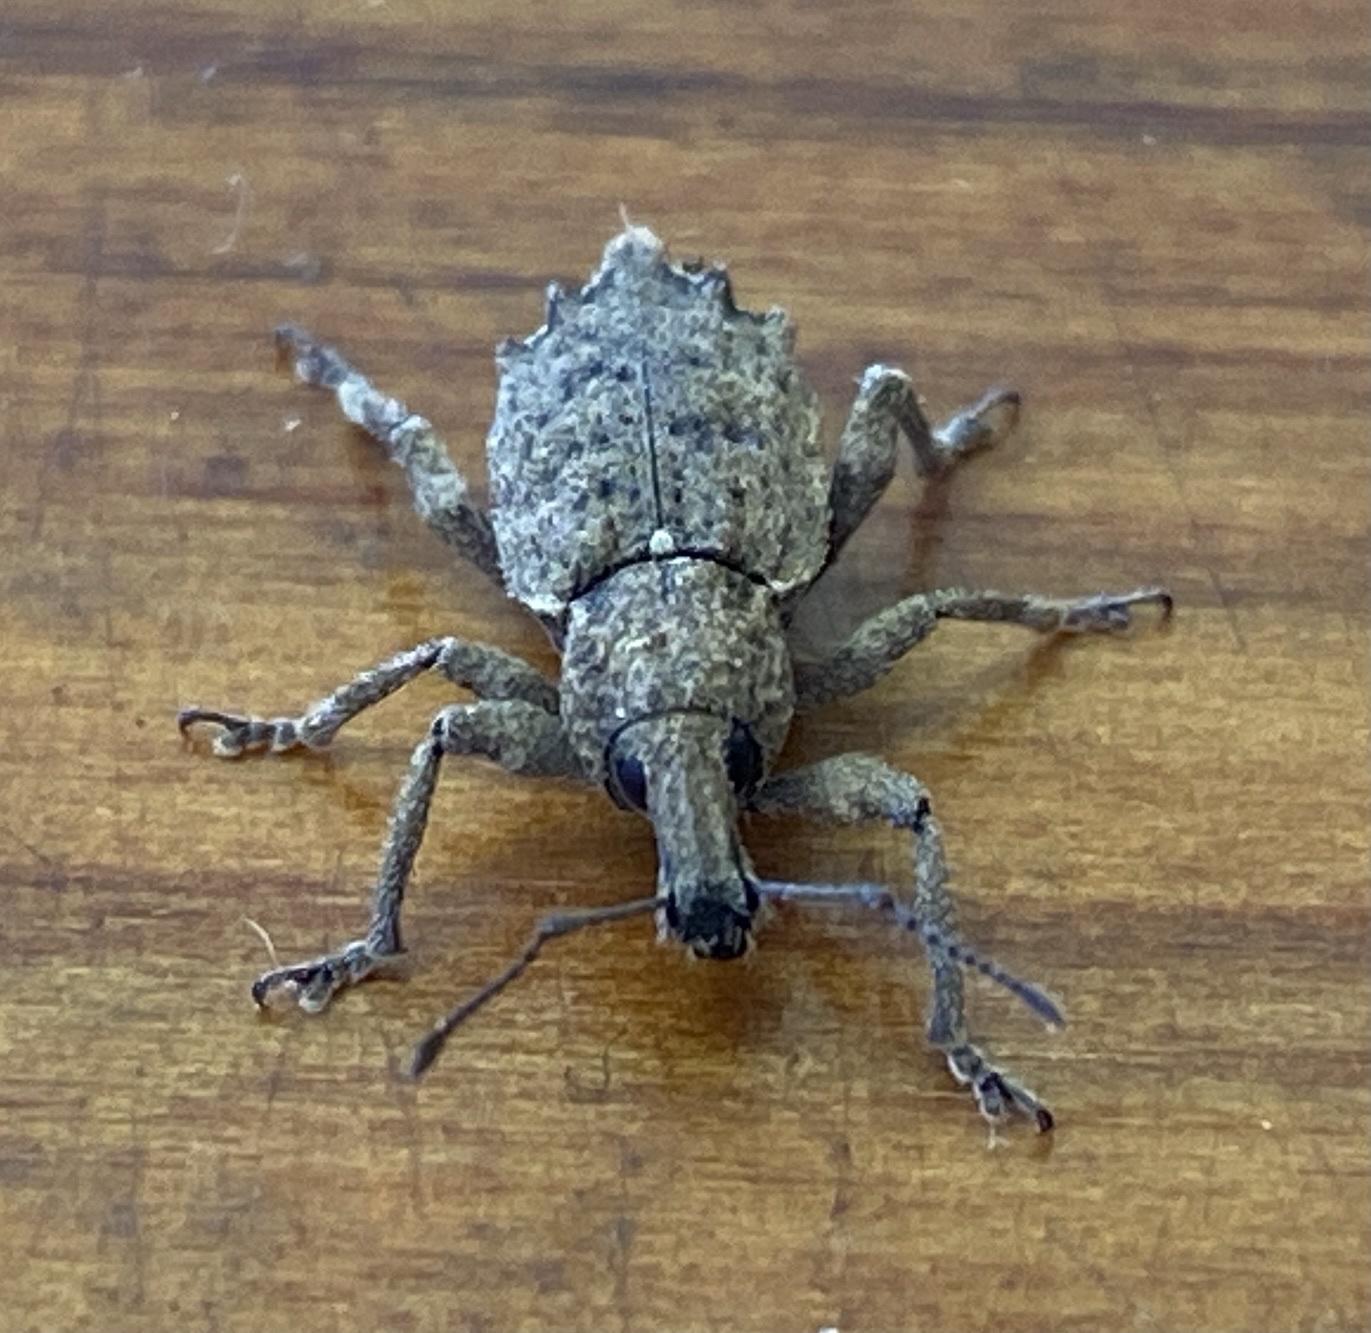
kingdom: Animalia
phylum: Arthropoda
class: Insecta
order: Coleoptera
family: Curculionidae
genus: Chalepistes
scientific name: Chalepistes rhesus
